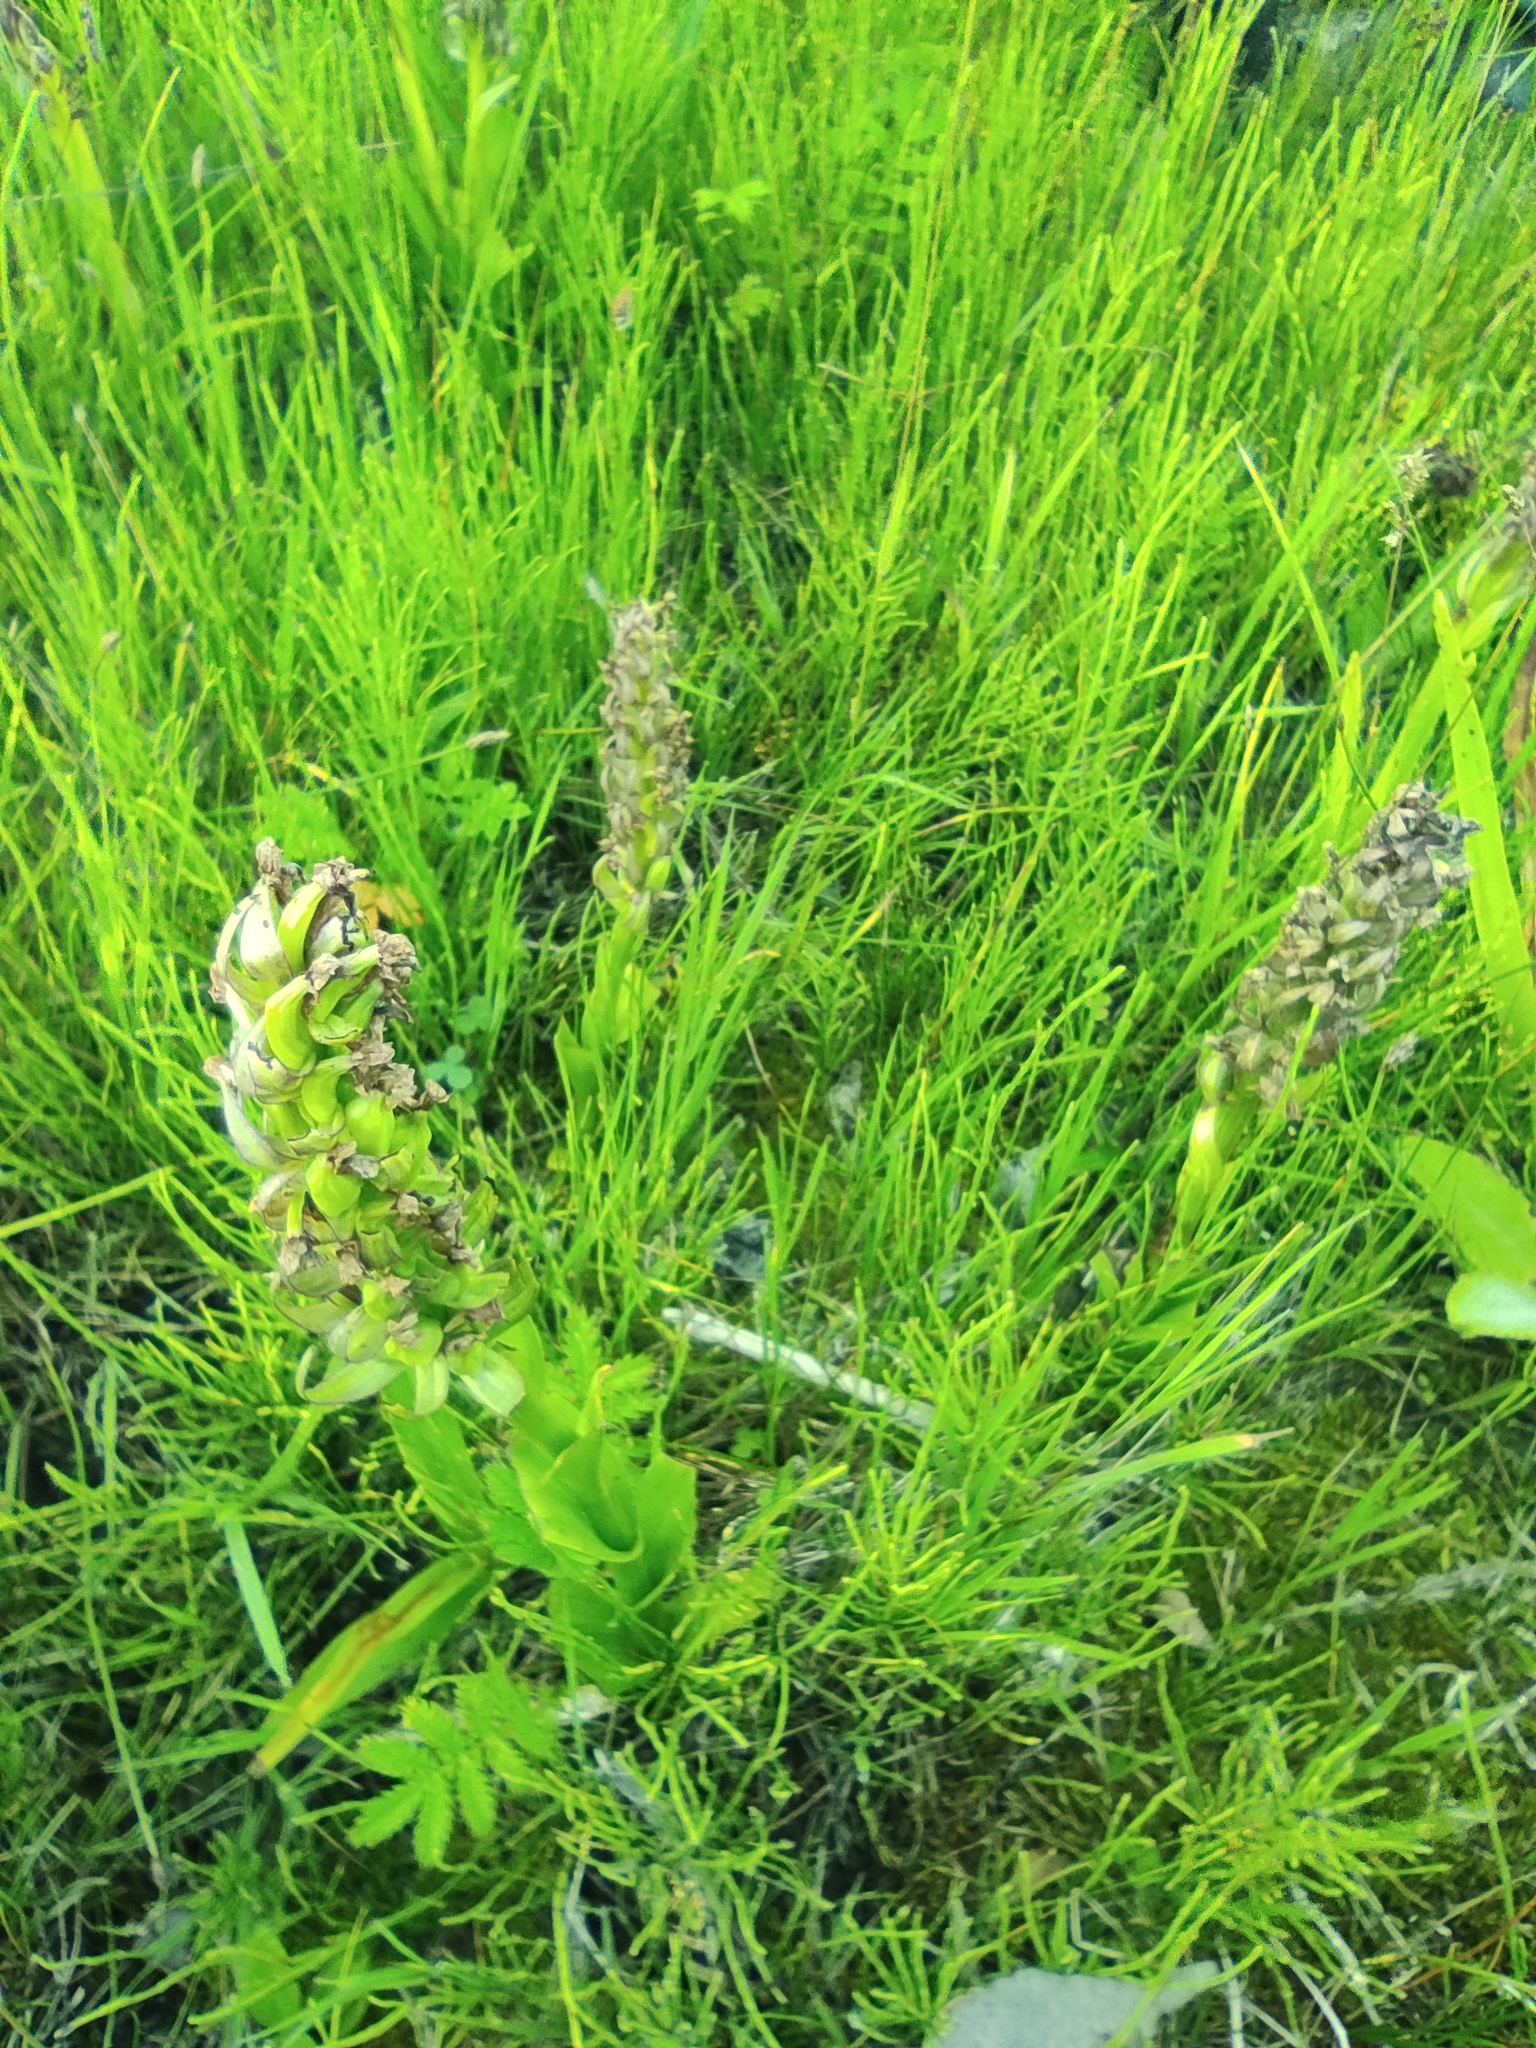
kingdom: Plantae
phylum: Tracheophyta
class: Liliopsida
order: Asparagales
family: Orchidaceae
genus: Dactylorhiza
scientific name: Dactylorhiza incarnata
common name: Early marsh-orchid
